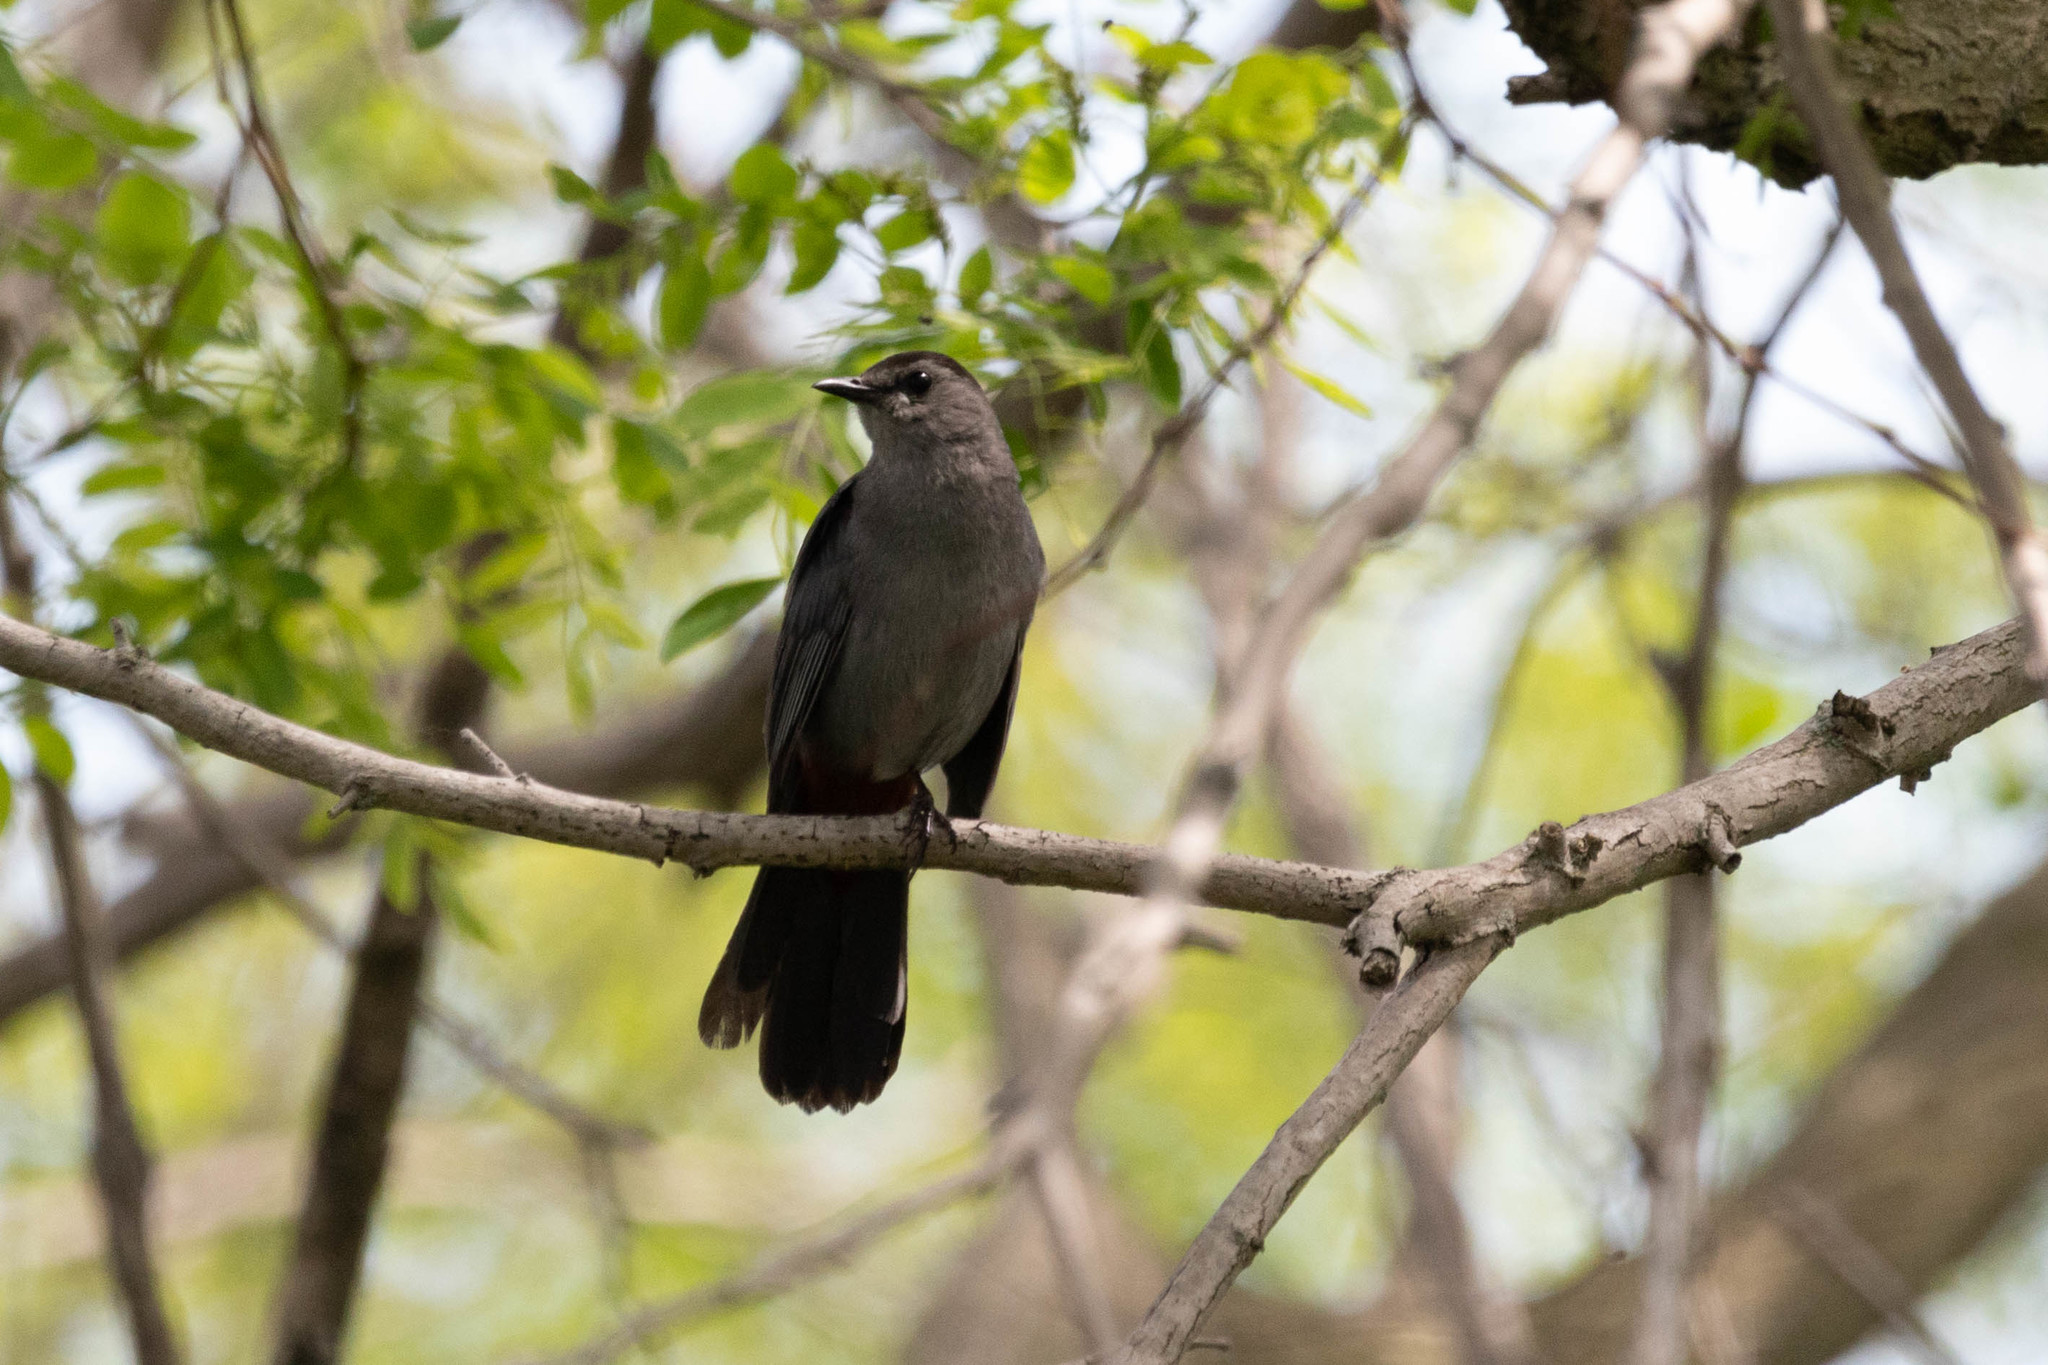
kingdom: Animalia
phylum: Chordata
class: Aves
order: Passeriformes
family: Mimidae
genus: Dumetella
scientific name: Dumetella carolinensis
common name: Gray catbird
